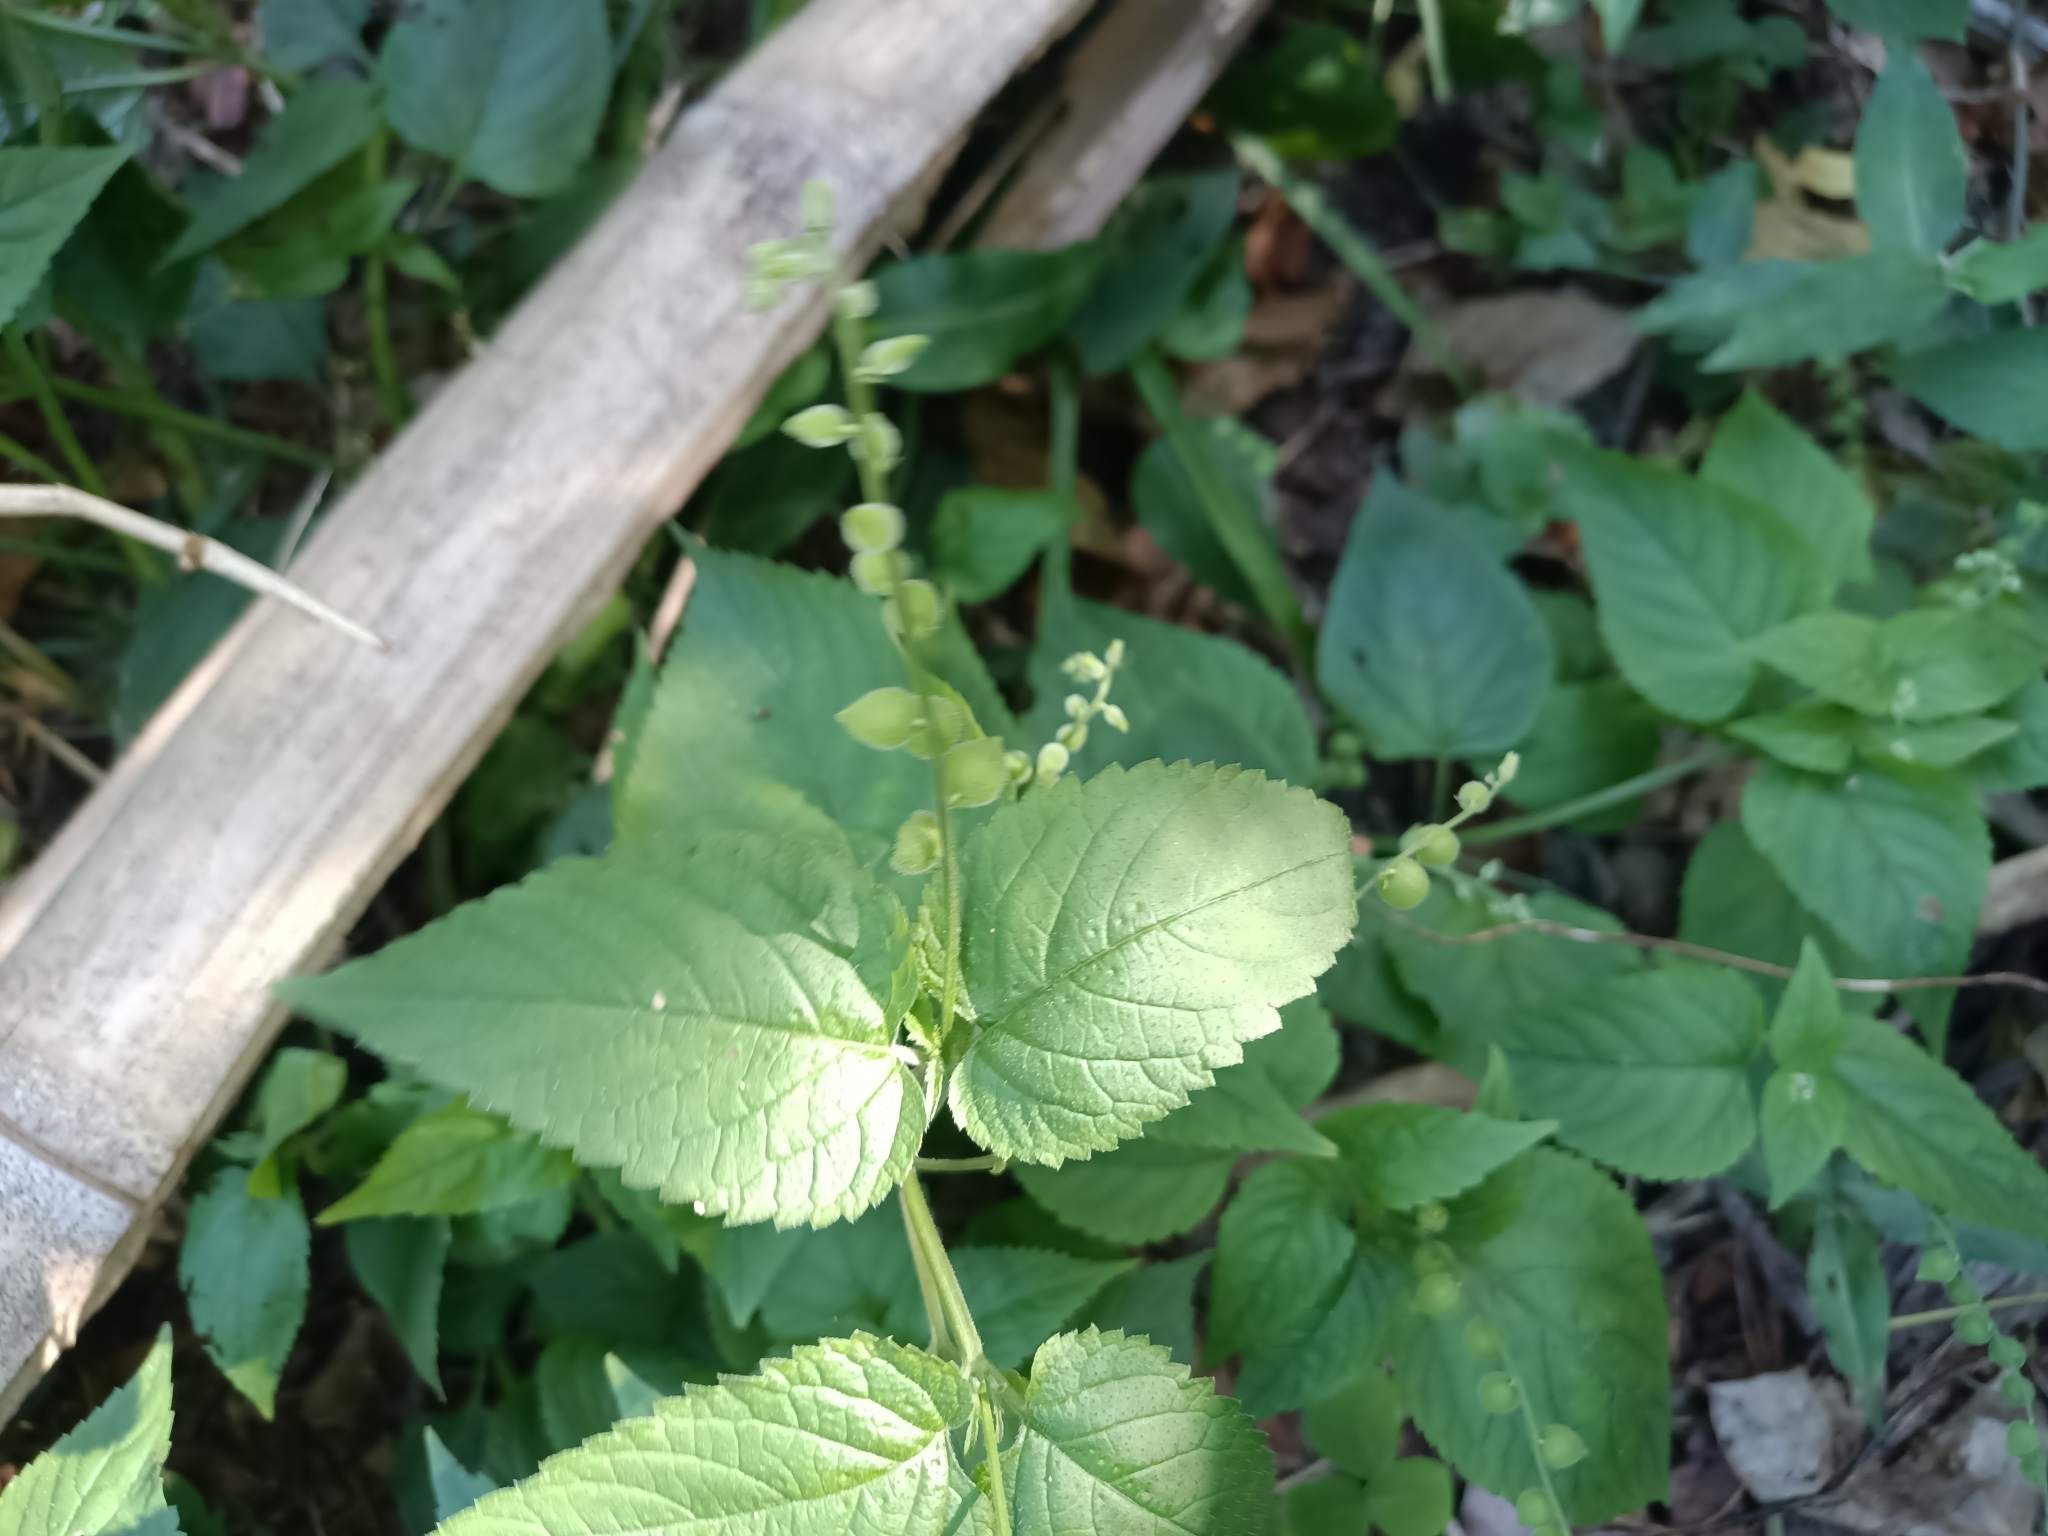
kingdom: Plantae
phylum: Tracheophyta
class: Magnoliopsida
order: Lamiales
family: Verbenaceae
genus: Priva
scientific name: Priva lappulacea
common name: Fasten-'pon-coat
